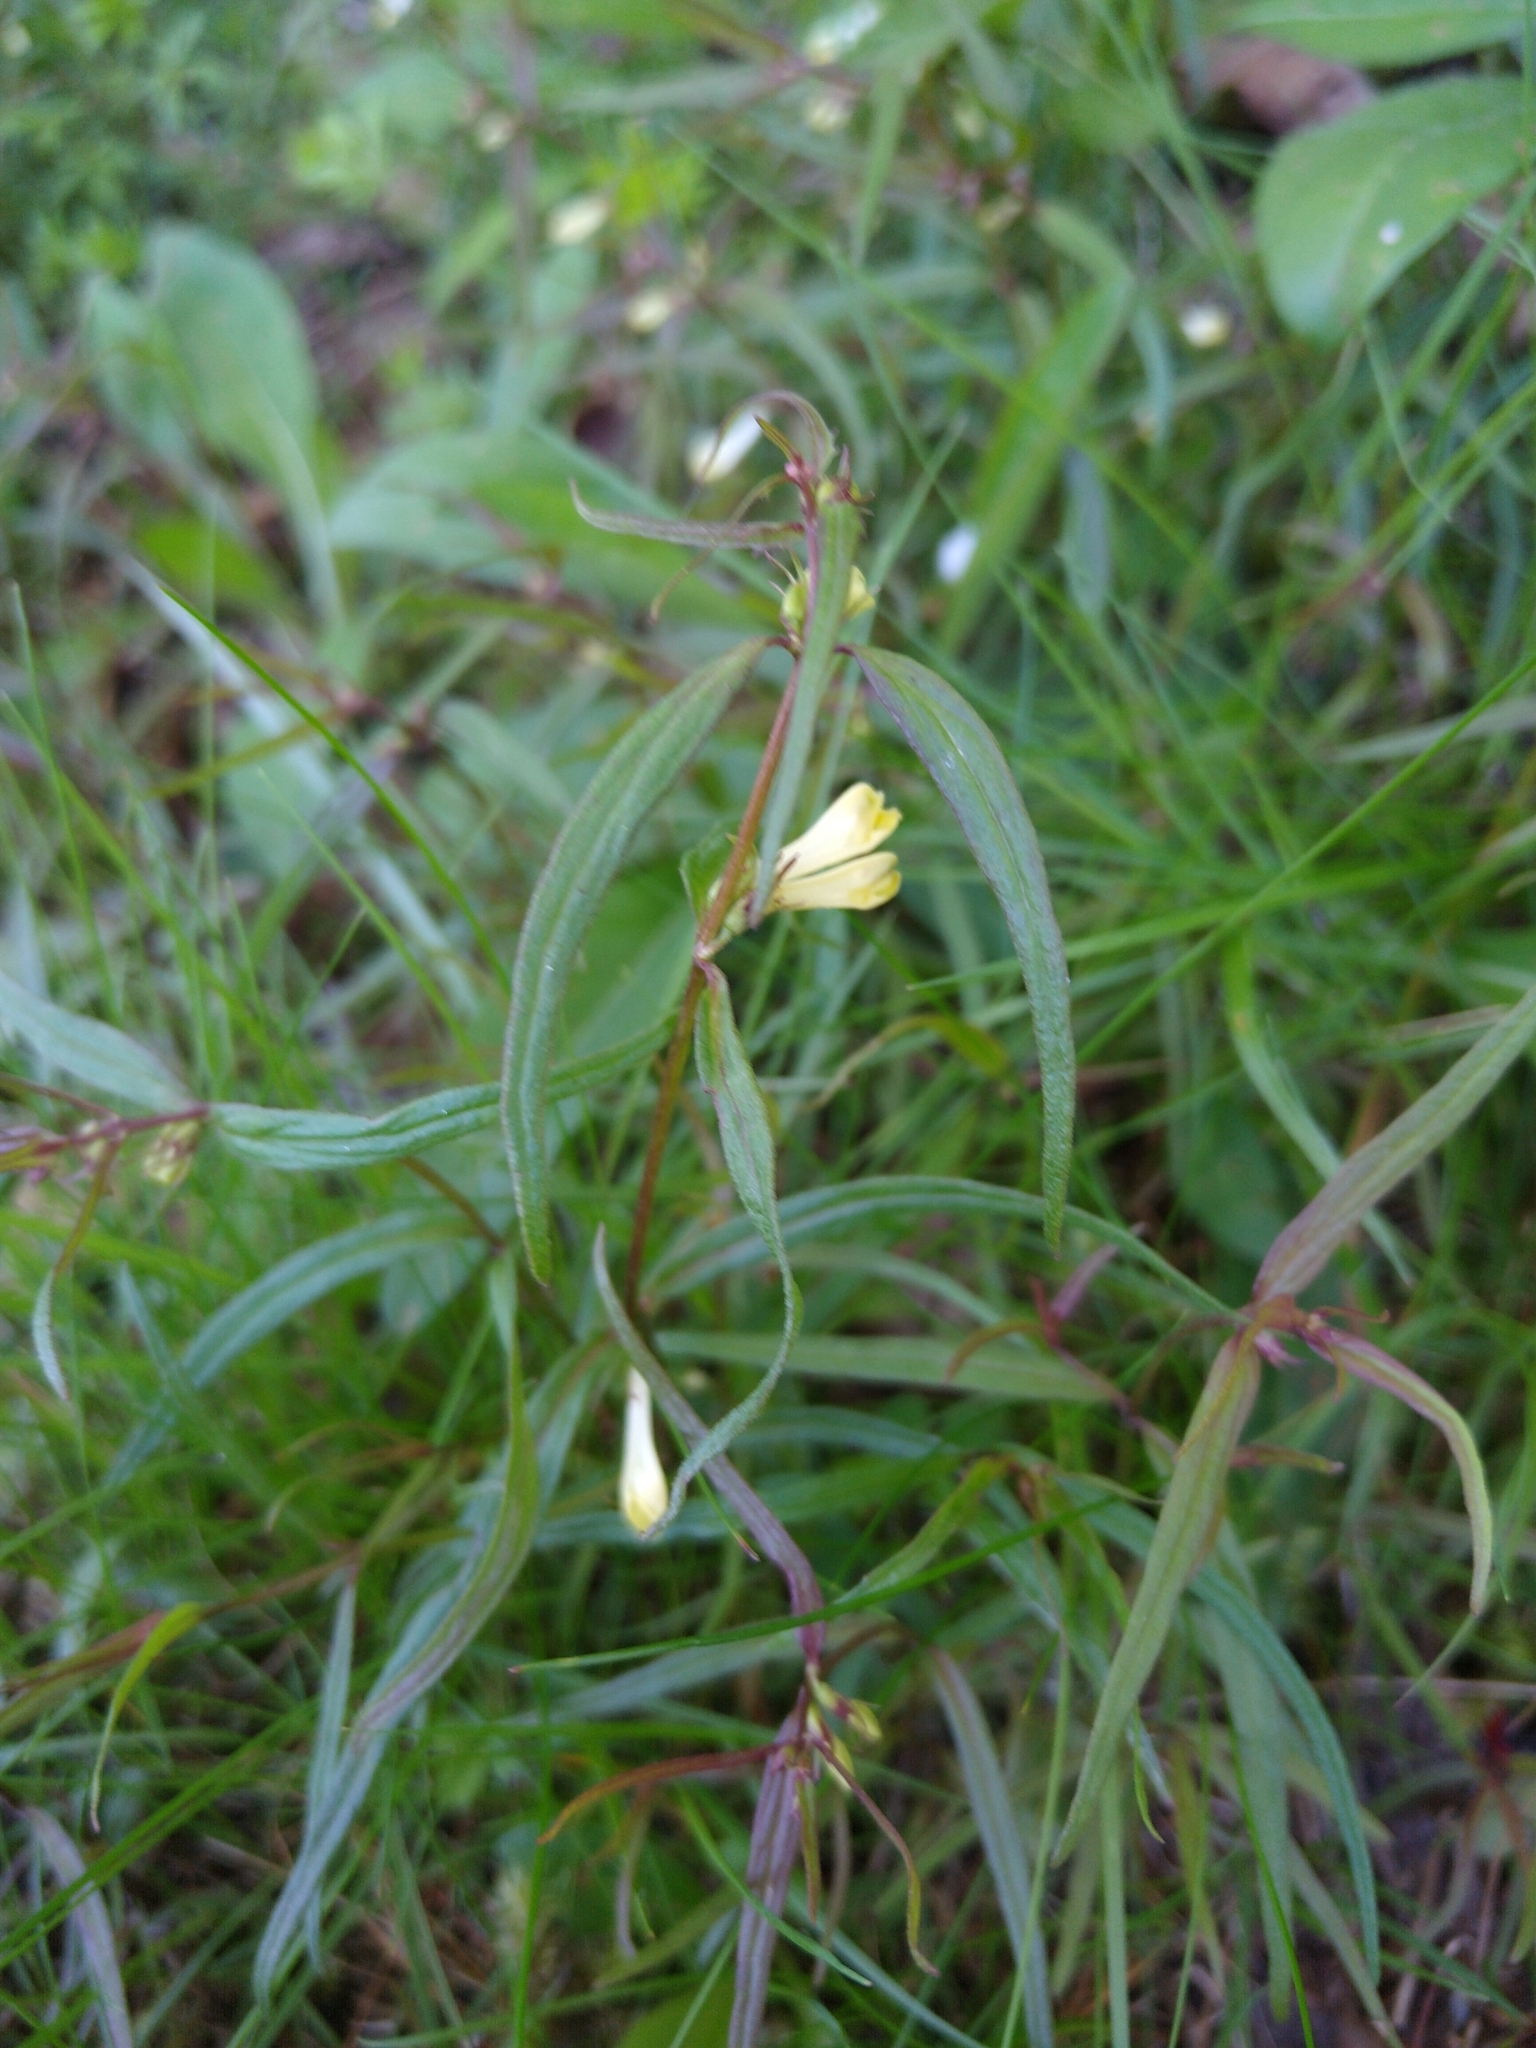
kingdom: Plantae
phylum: Tracheophyta
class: Magnoliopsida
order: Lamiales
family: Orobanchaceae
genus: Melampyrum
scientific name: Melampyrum pratense
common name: Common cow-wheat
